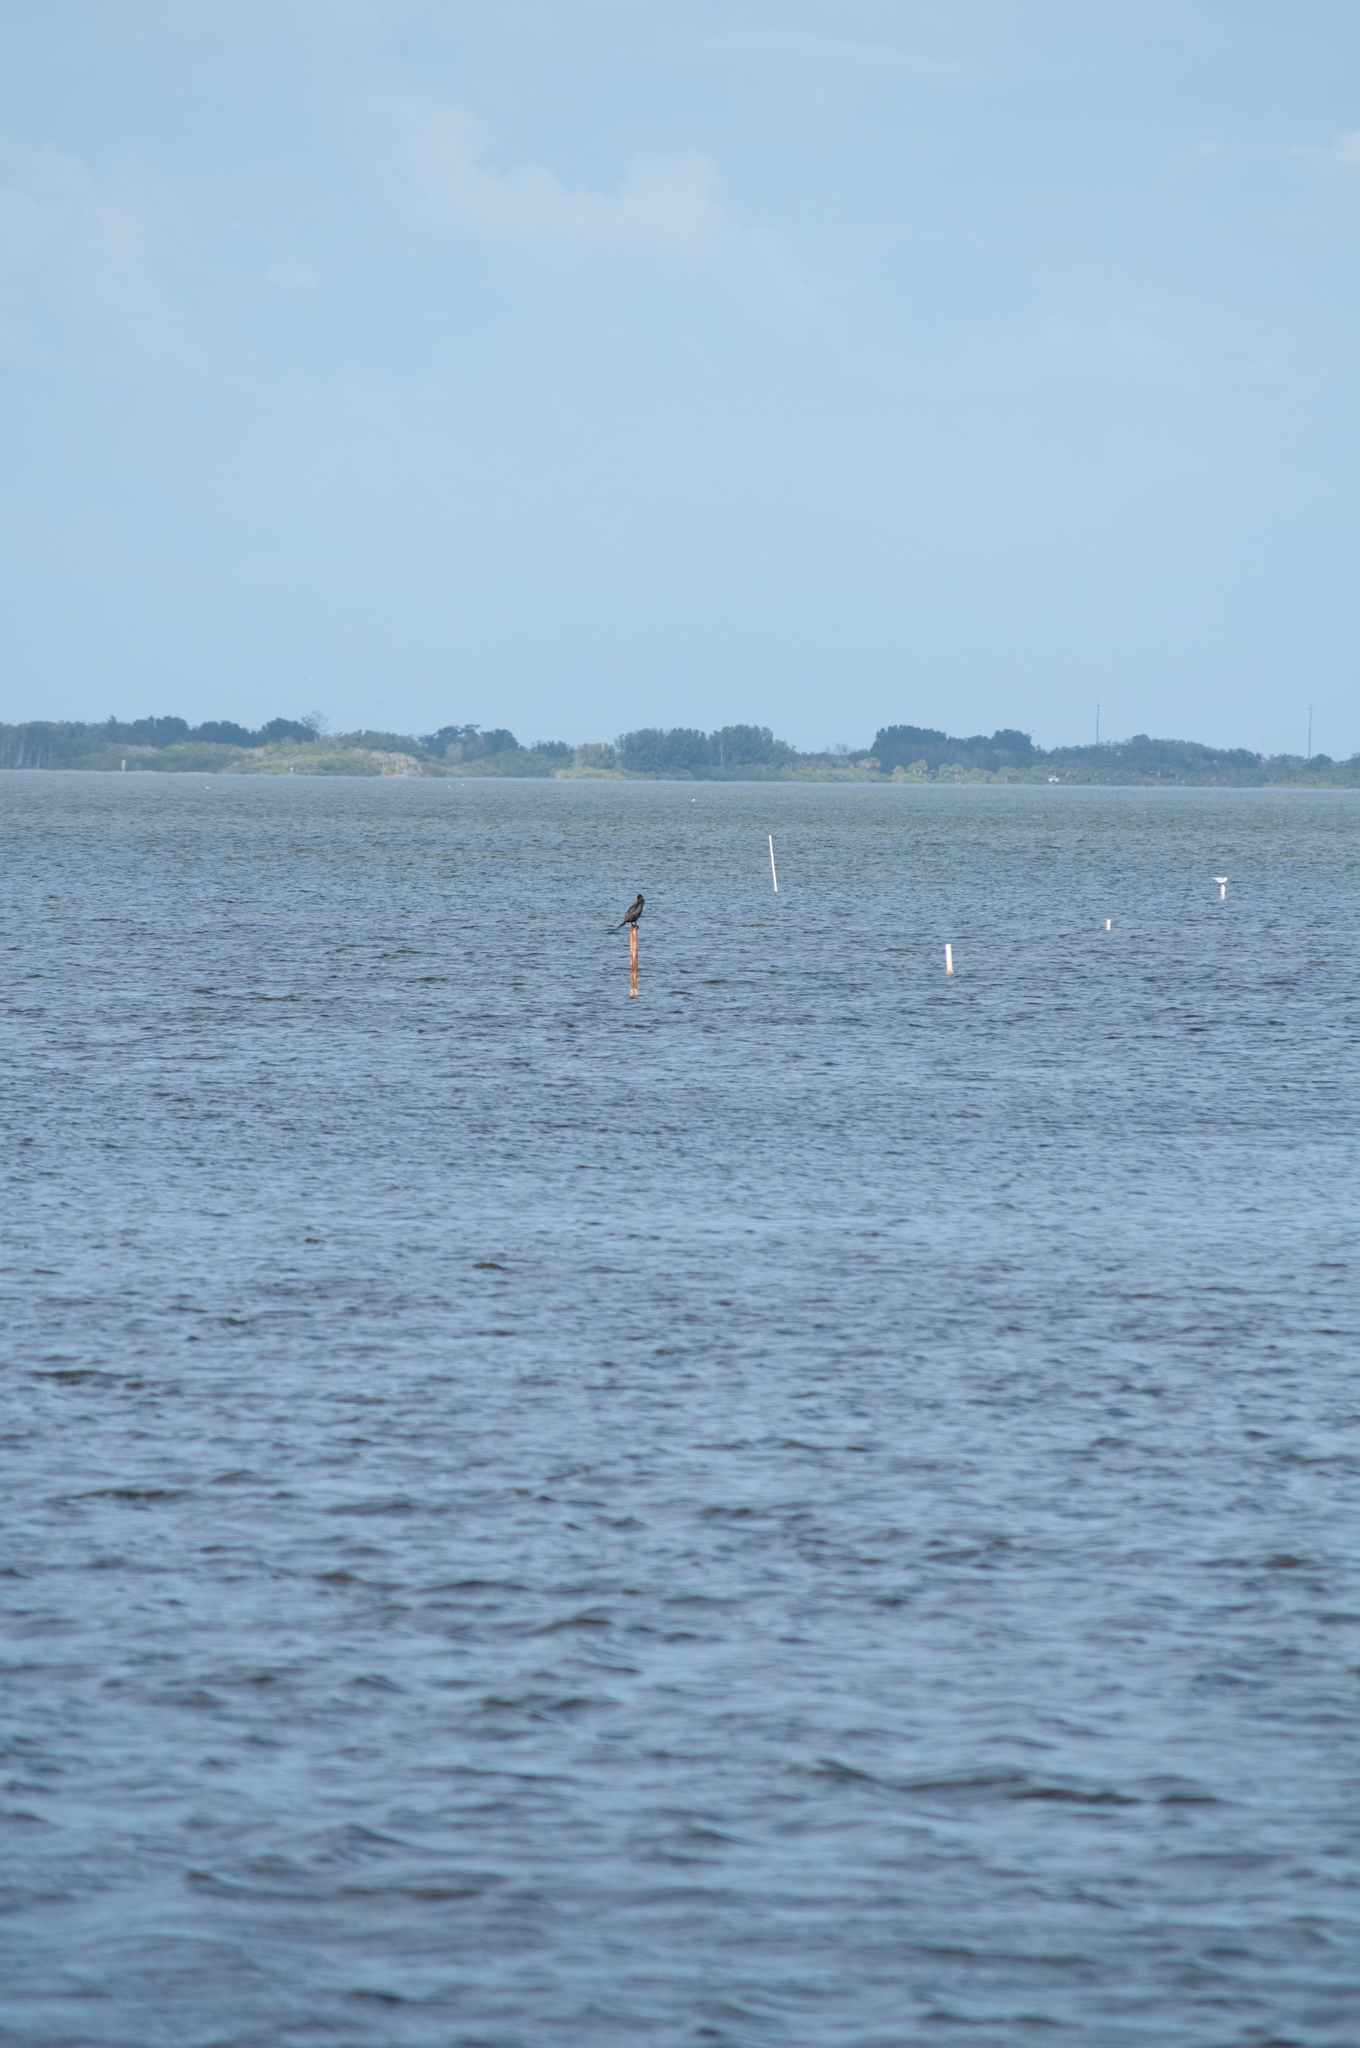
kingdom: Animalia
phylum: Chordata
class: Aves
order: Suliformes
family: Phalacrocoracidae
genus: Phalacrocorax
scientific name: Phalacrocorax auritus
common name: Double-crested cormorant
